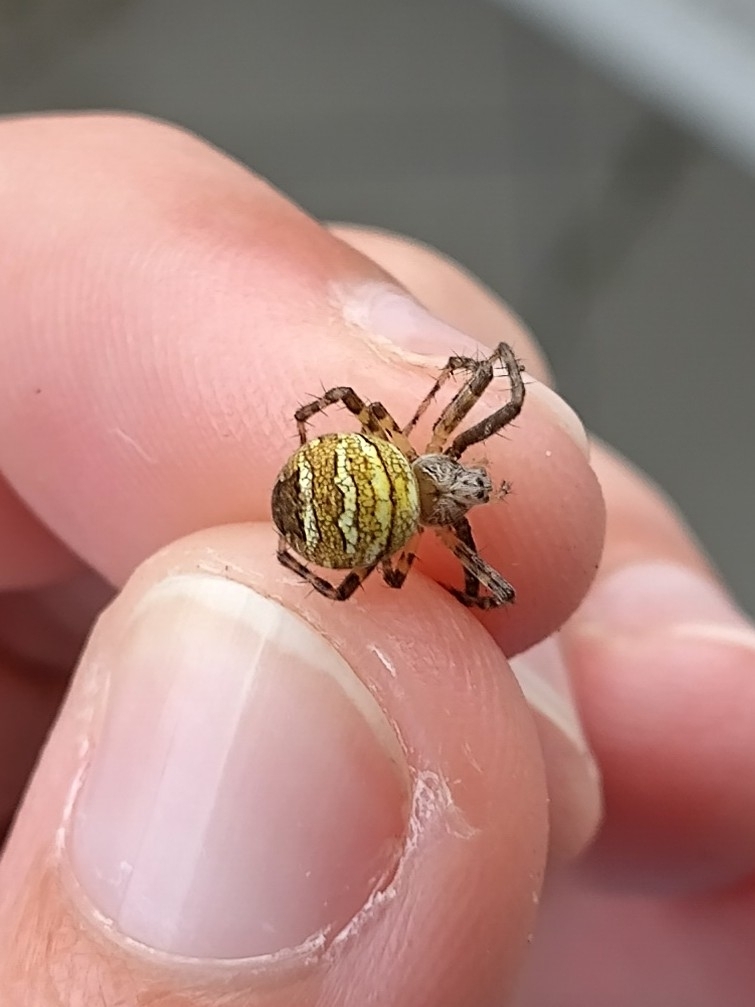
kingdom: Animalia
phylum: Arthropoda
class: Arachnida
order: Araneae
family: Araneidae
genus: Gea
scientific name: Gea theridioides
